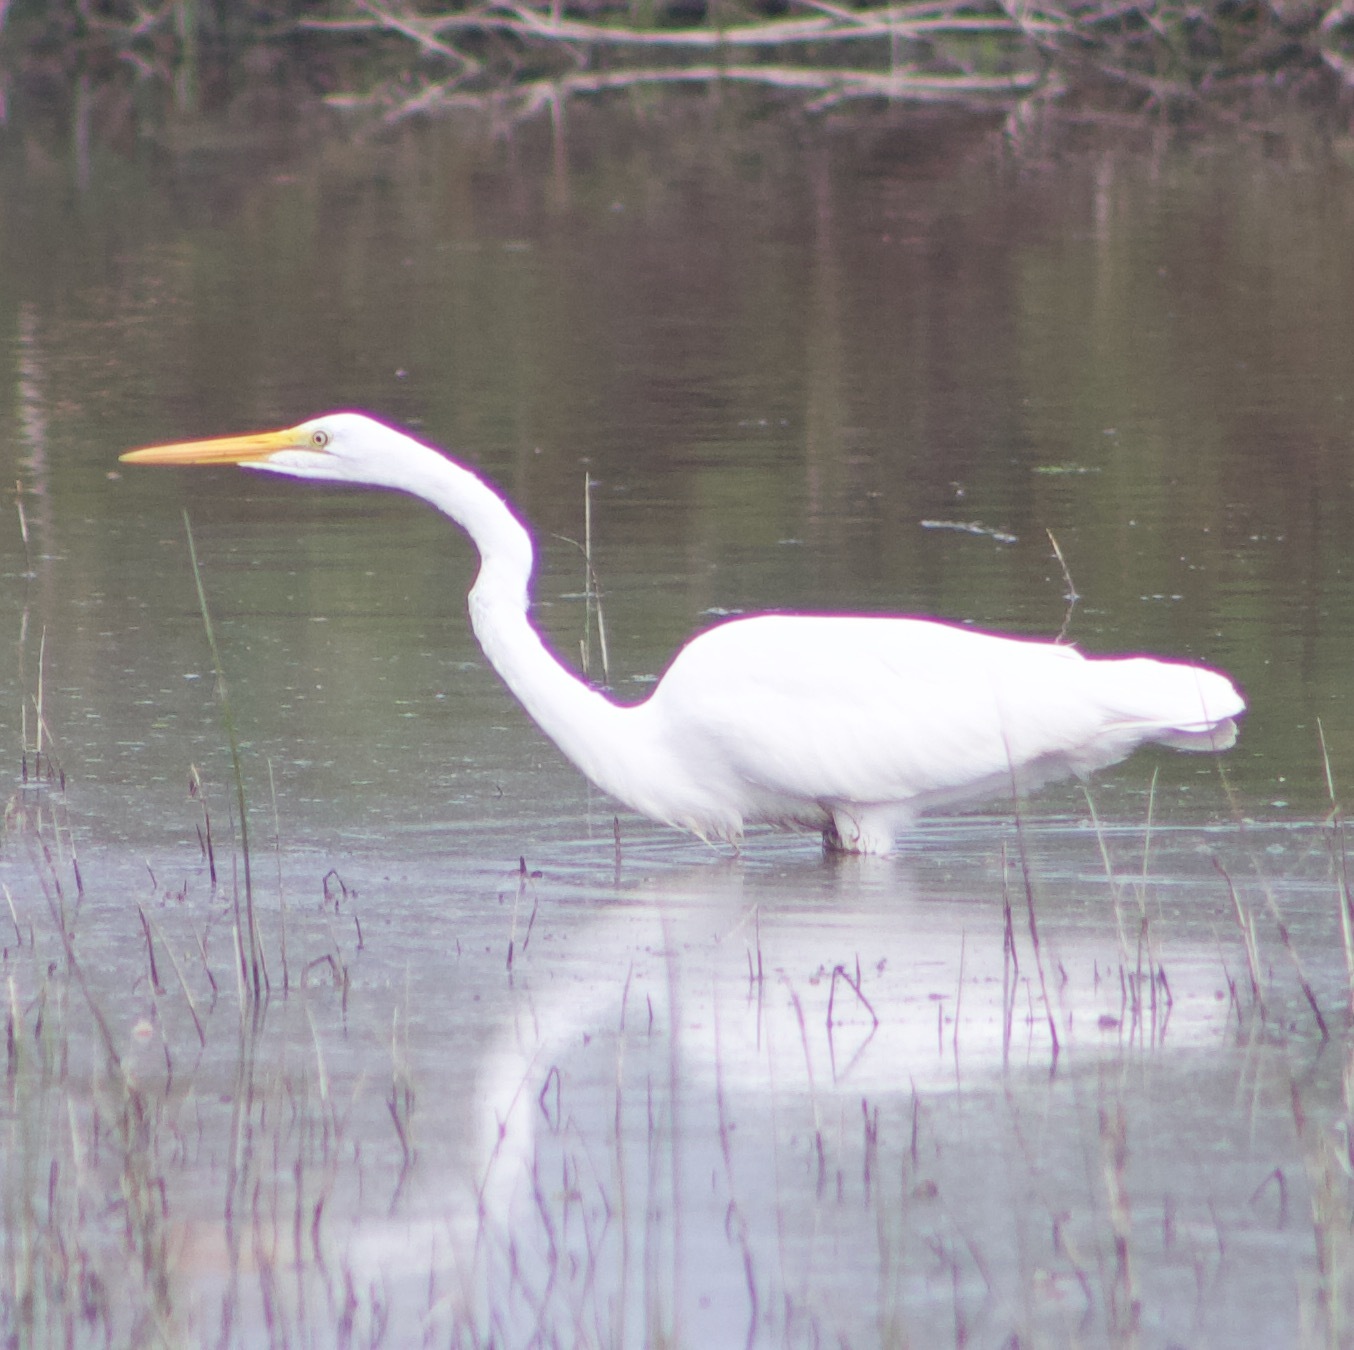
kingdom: Animalia
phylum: Chordata
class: Aves
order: Pelecaniformes
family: Ardeidae
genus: Ardea
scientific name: Ardea alba
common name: Great egret
